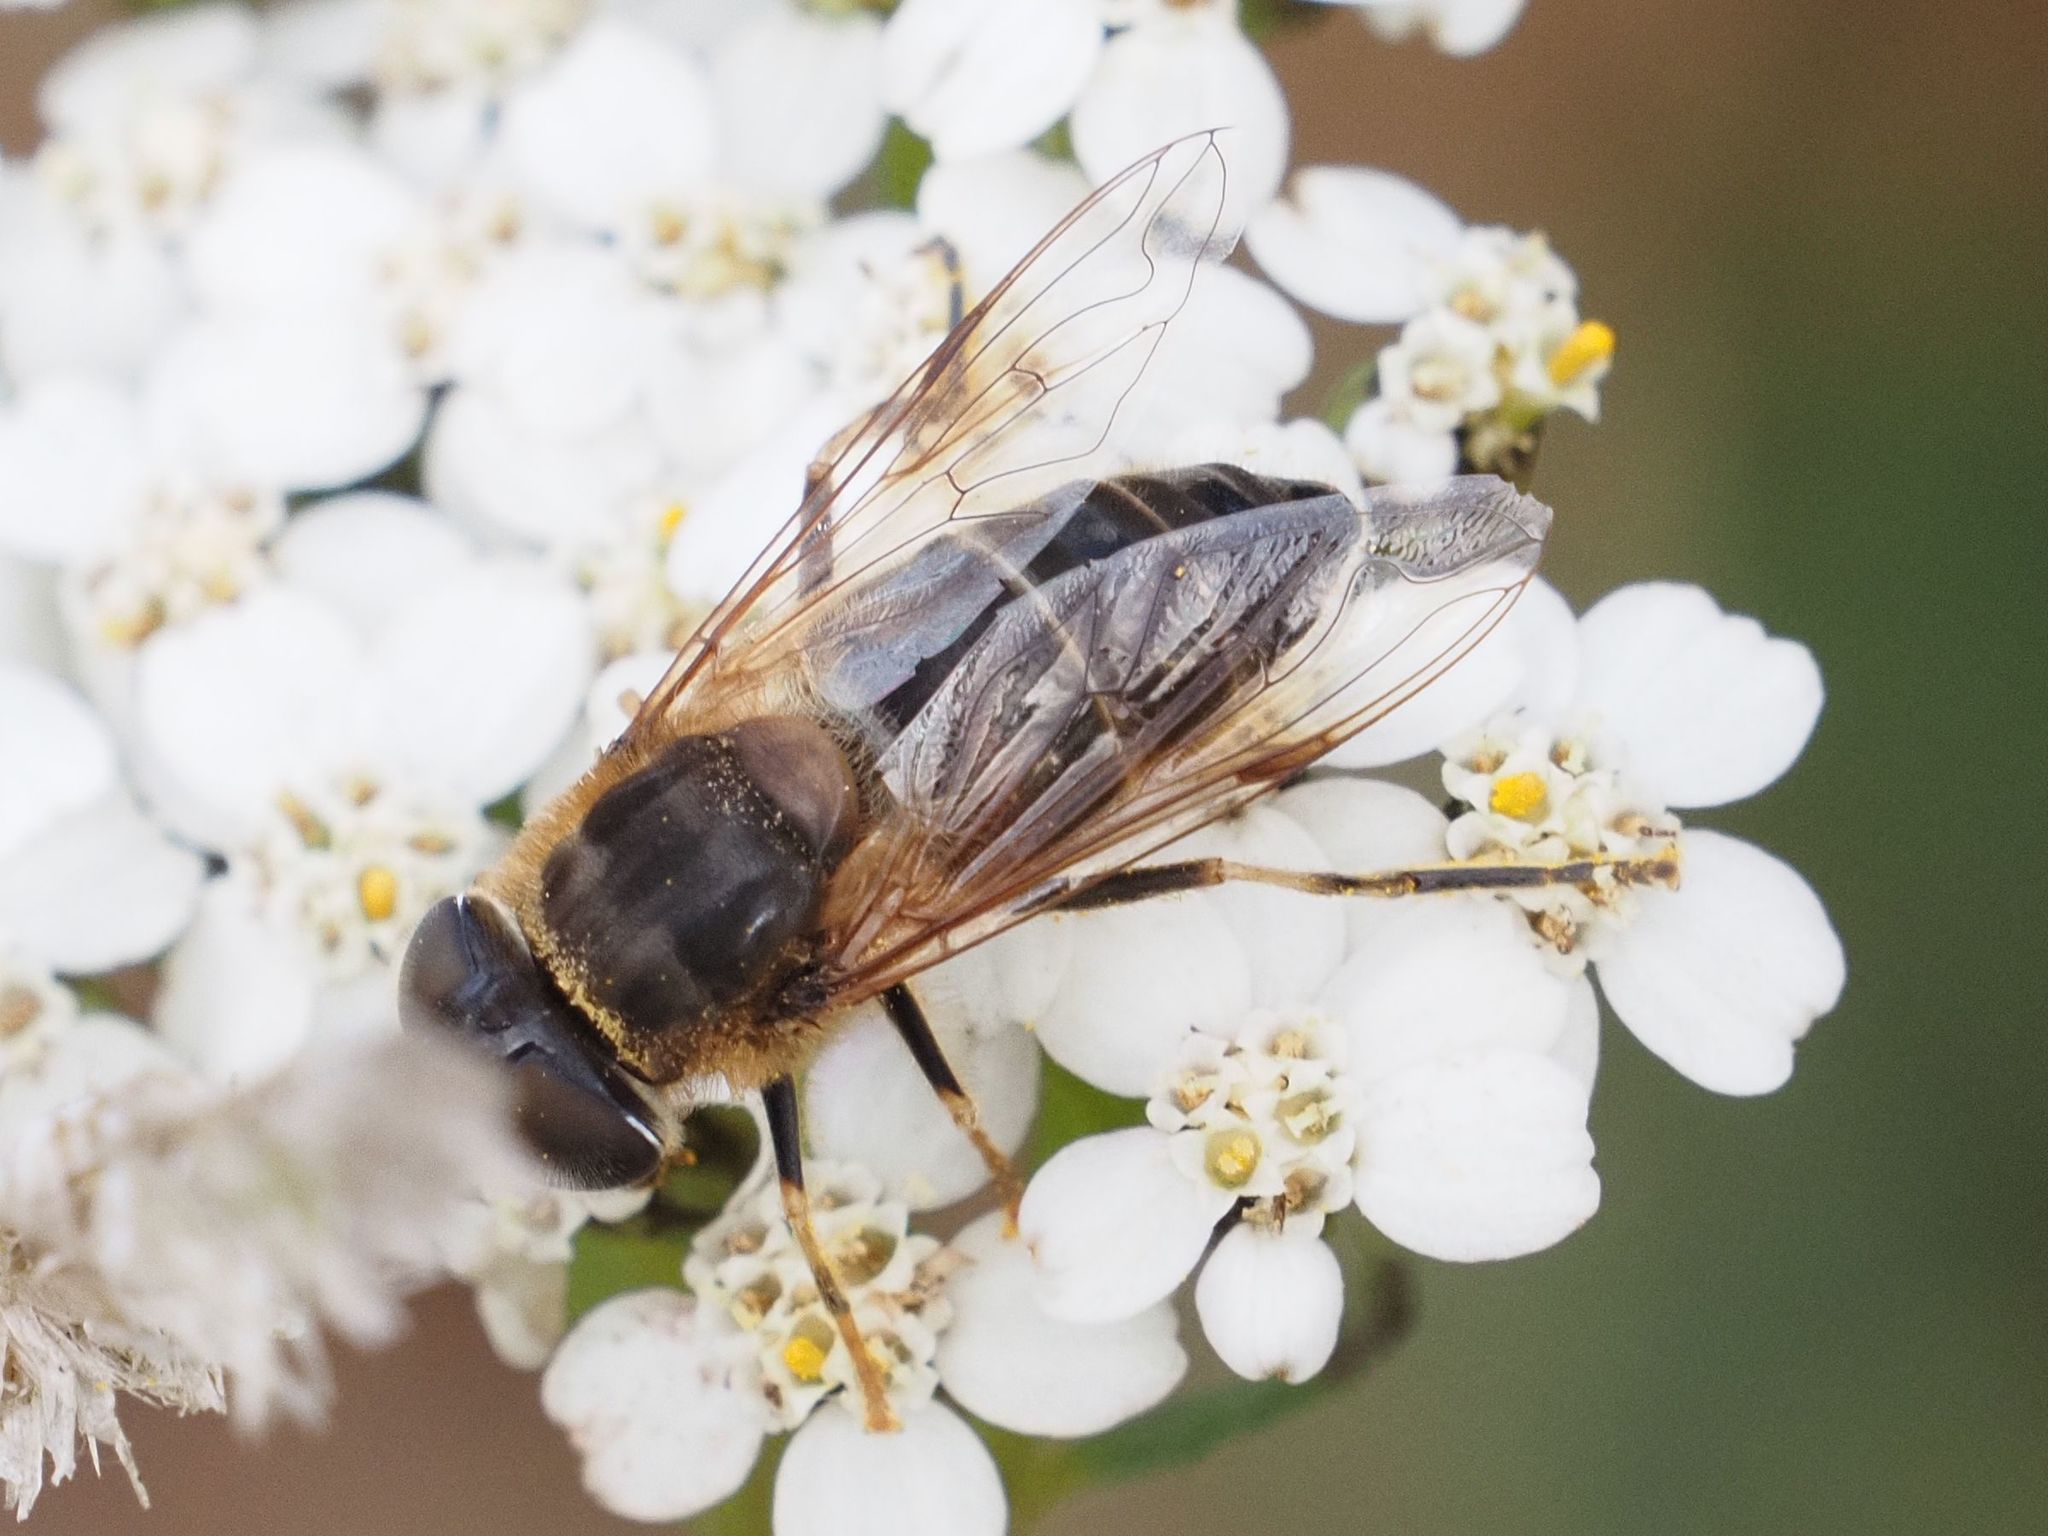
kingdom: Animalia
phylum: Arthropoda
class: Insecta
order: Diptera
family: Syrphidae
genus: Eristalis
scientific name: Eristalis pertinax
